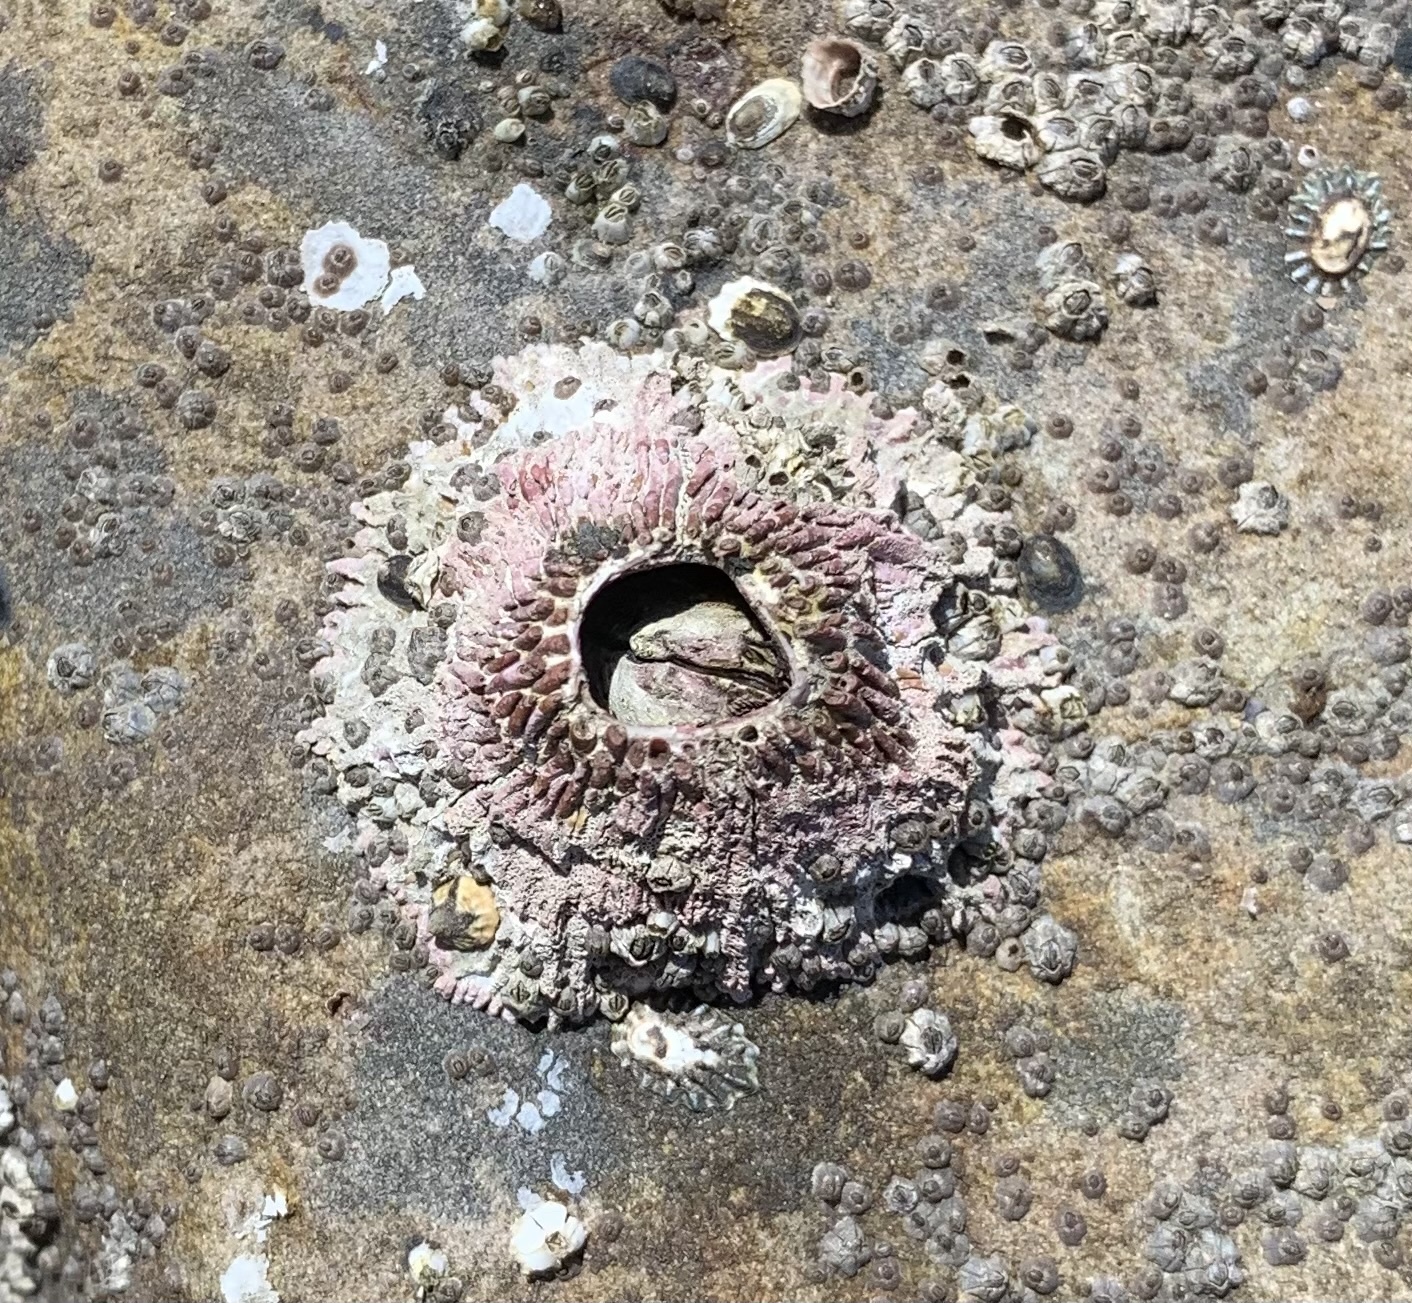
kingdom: Animalia
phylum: Arthropoda
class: Maxillopoda
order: Sessilia
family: Tetraclitidae
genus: Tetraclita
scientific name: Tetraclita rubescens
